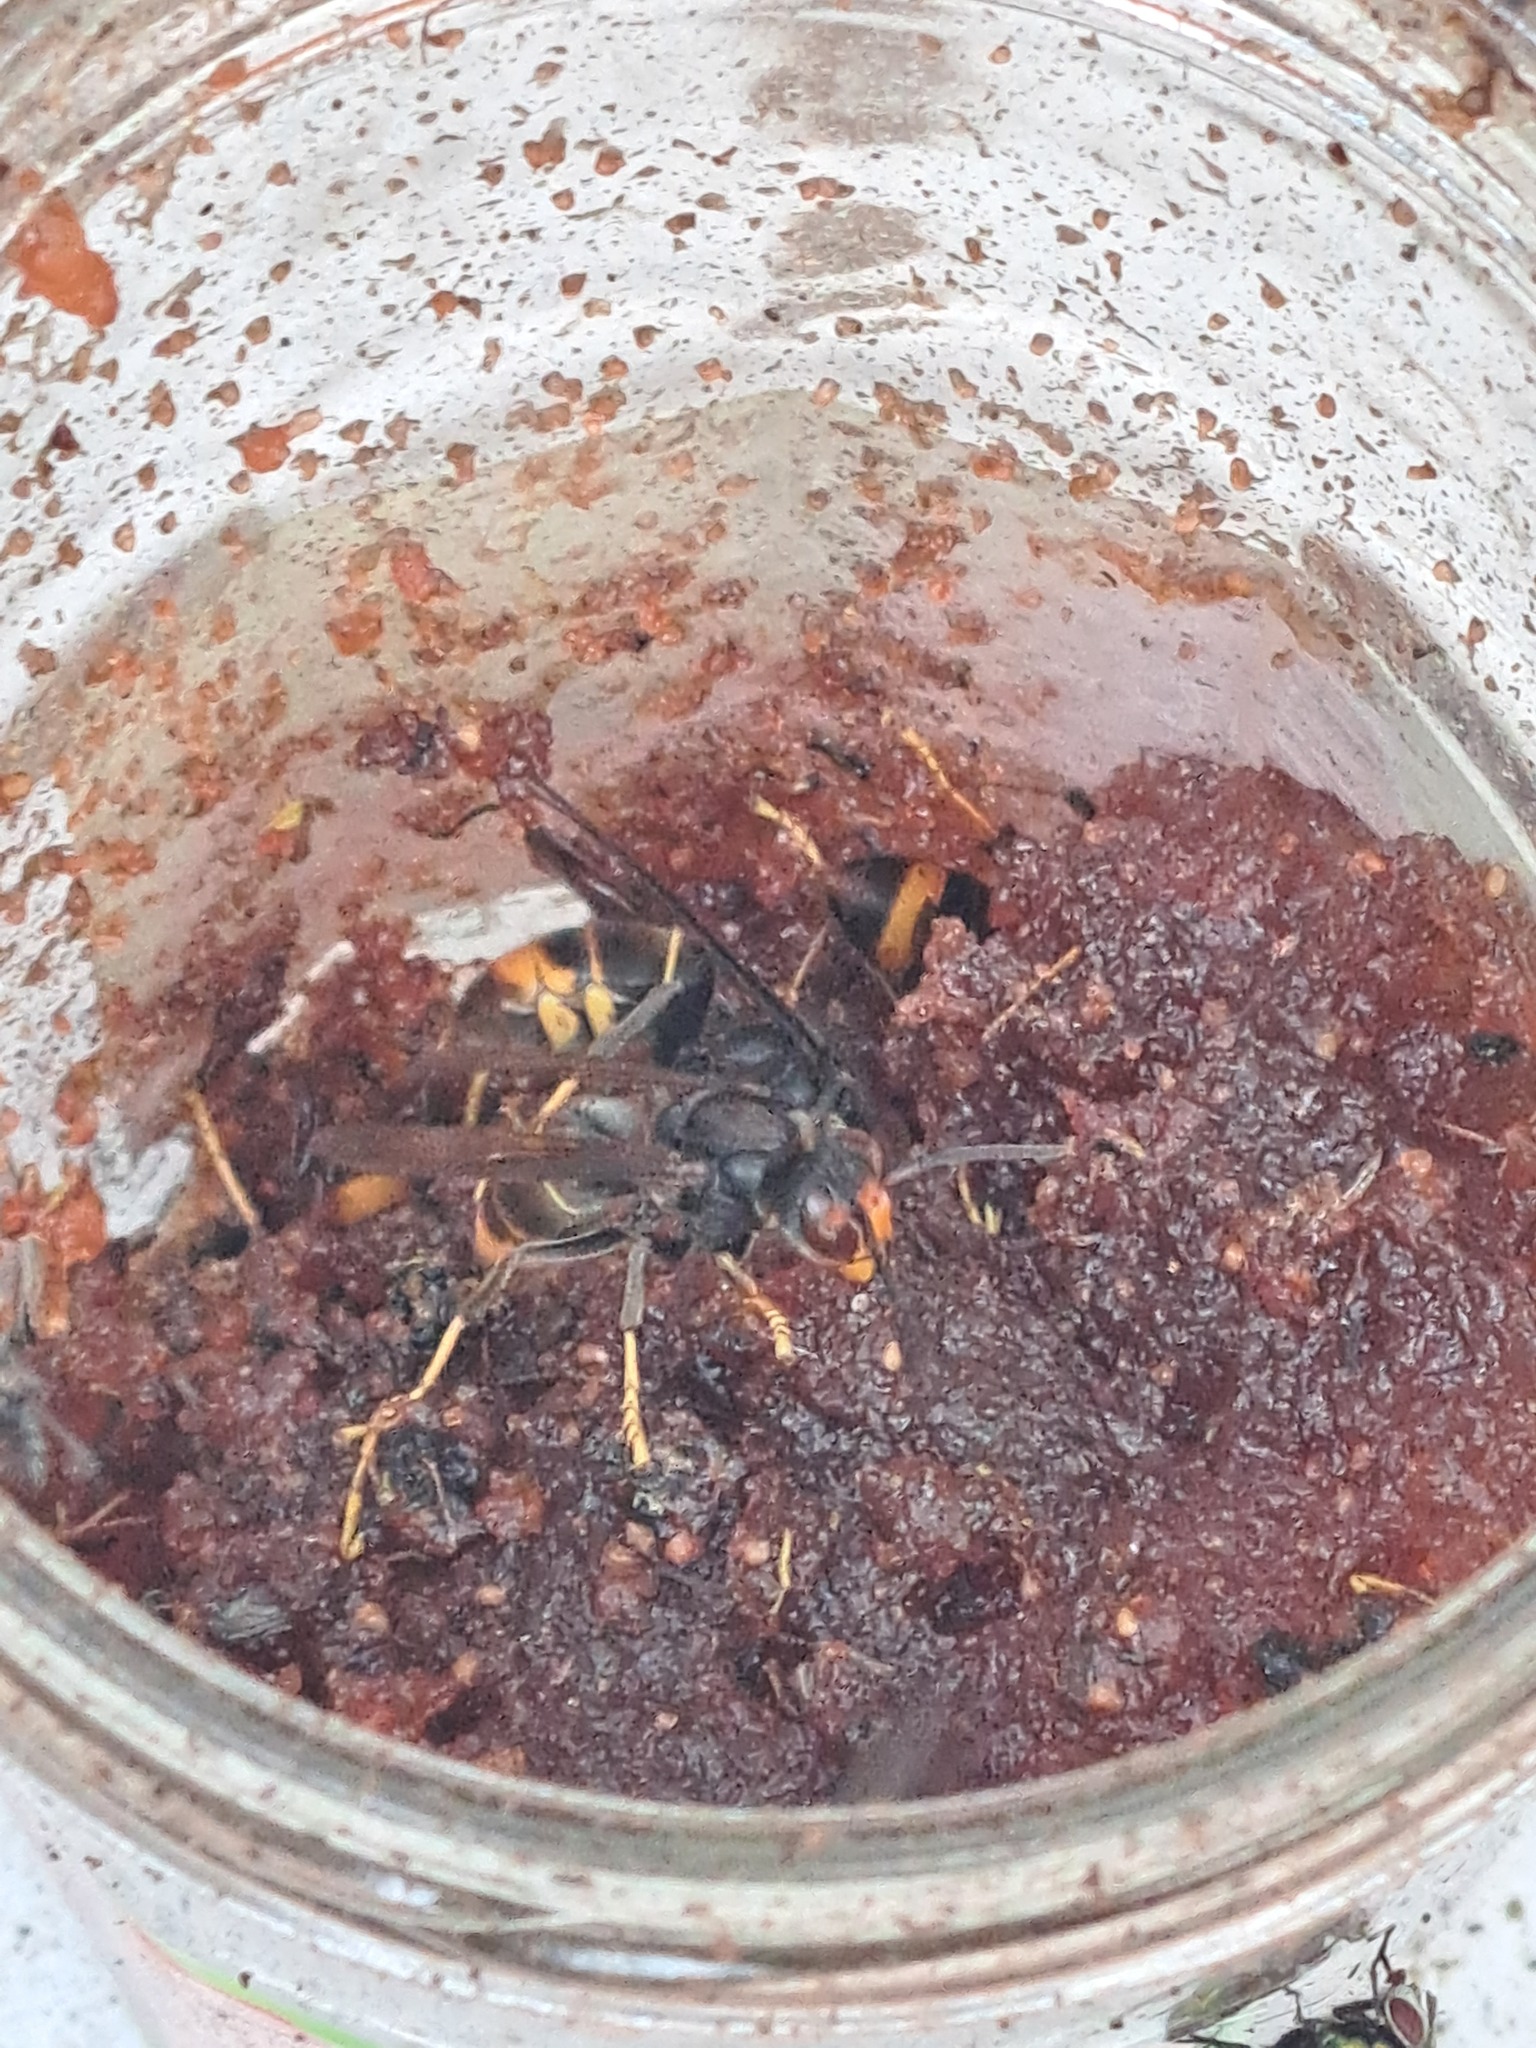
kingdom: Animalia
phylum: Arthropoda
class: Insecta
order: Hymenoptera
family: Vespidae
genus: Vespa
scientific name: Vespa velutina
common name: Asian hornet
